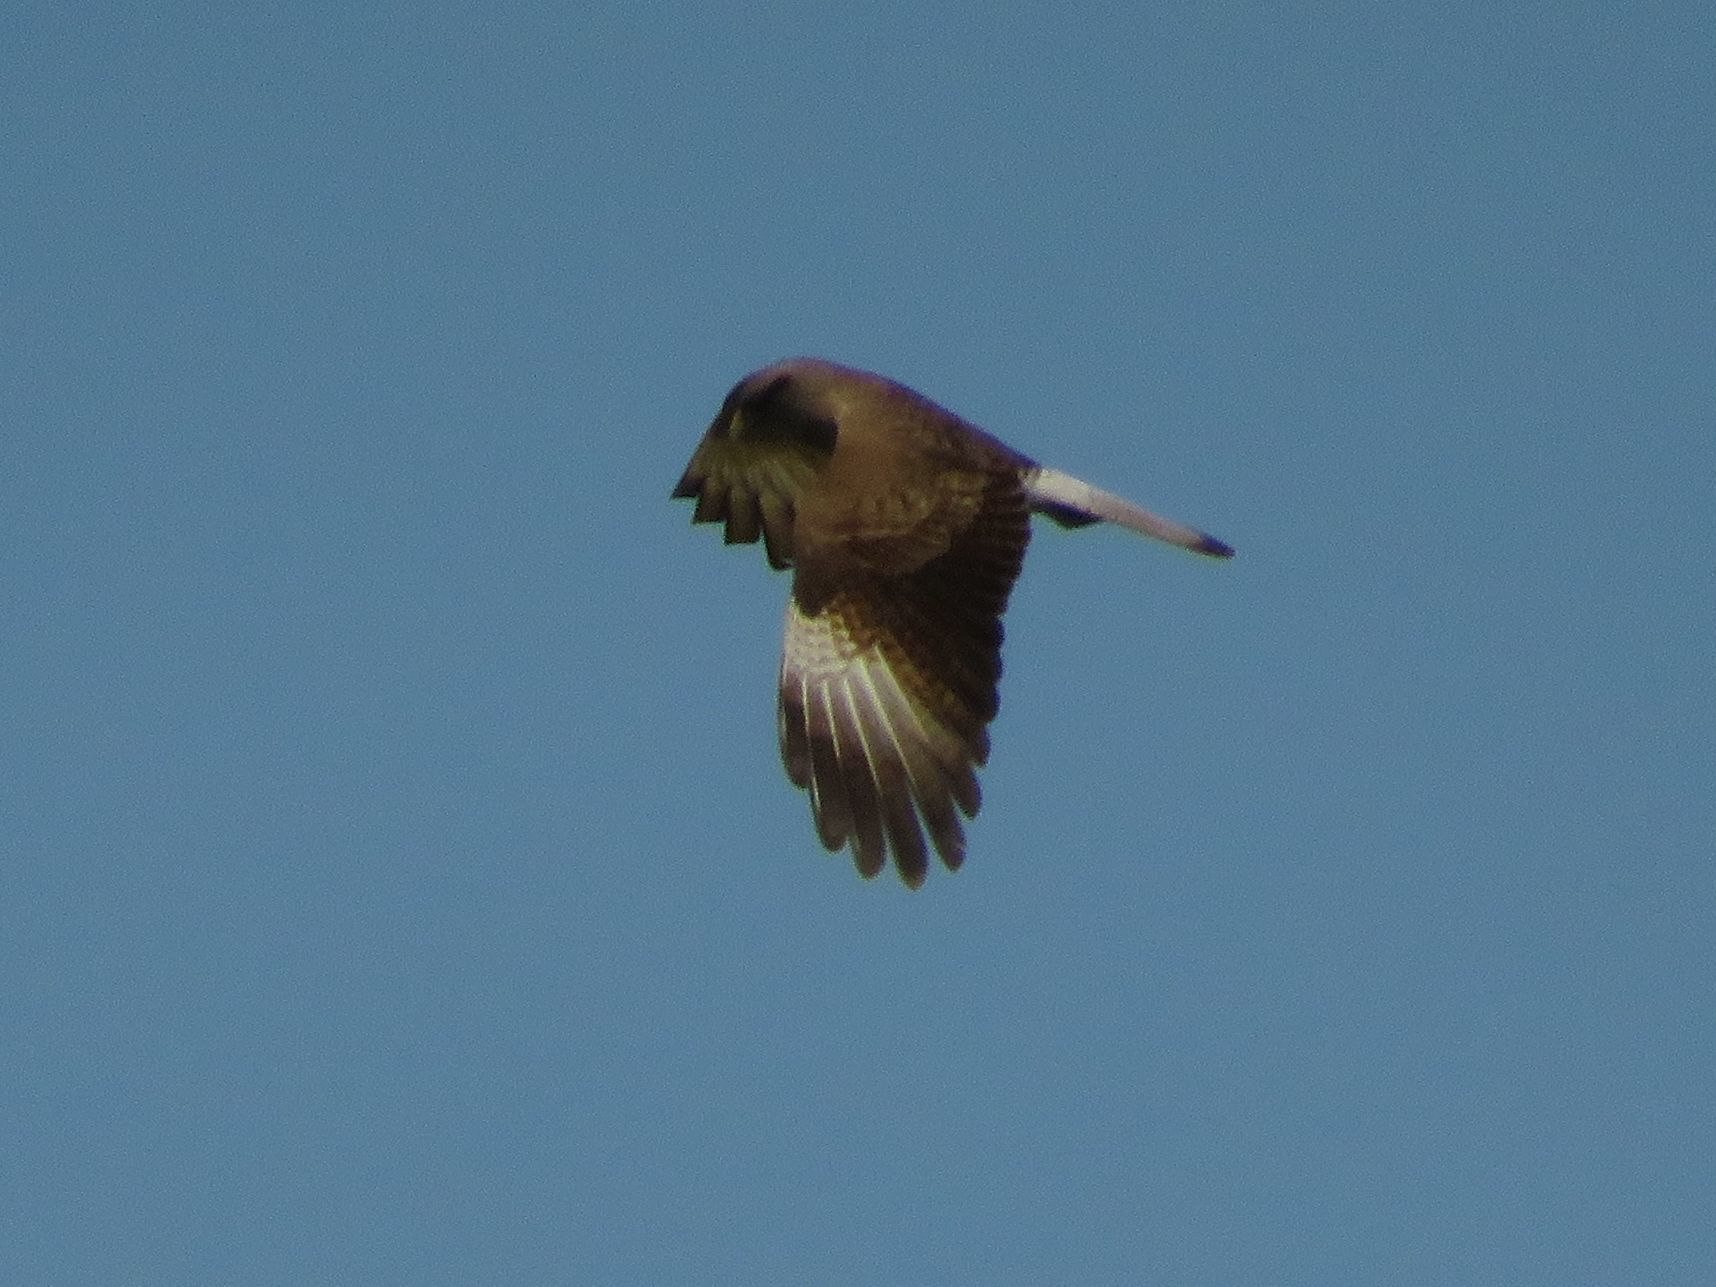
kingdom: Animalia
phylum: Chordata
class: Aves
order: Falconiformes
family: Falconidae
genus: Daptrius
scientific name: Daptrius
